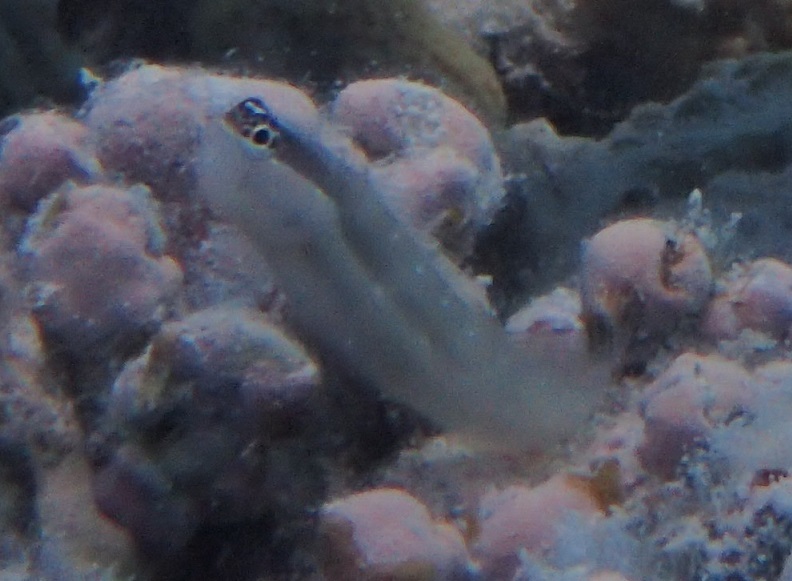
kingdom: Animalia
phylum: Chordata
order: Perciformes
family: Blenniidae
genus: Ecsenius
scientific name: Ecsenius mandibularis
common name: Queensland blenny
